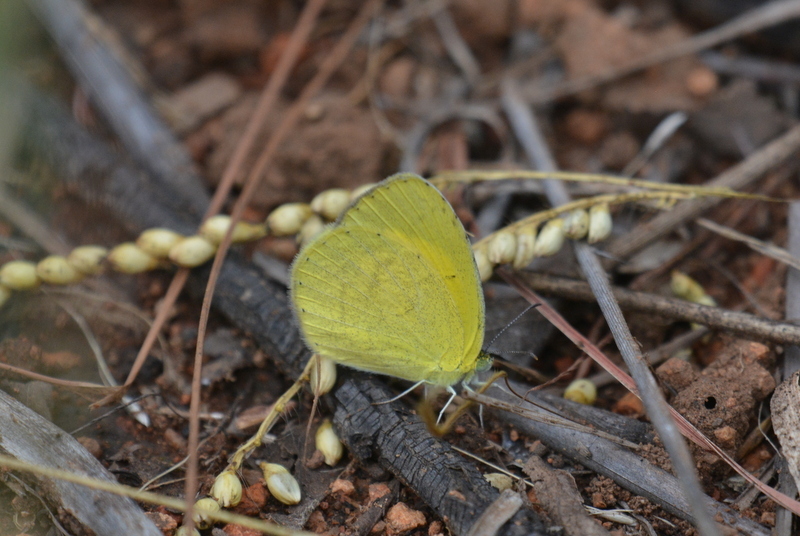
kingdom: Animalia
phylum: Arthropoda
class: Insecta
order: Lepidoptera
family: Pieridae
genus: Eurema
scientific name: Eurema brigitta
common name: Small grass yellow
